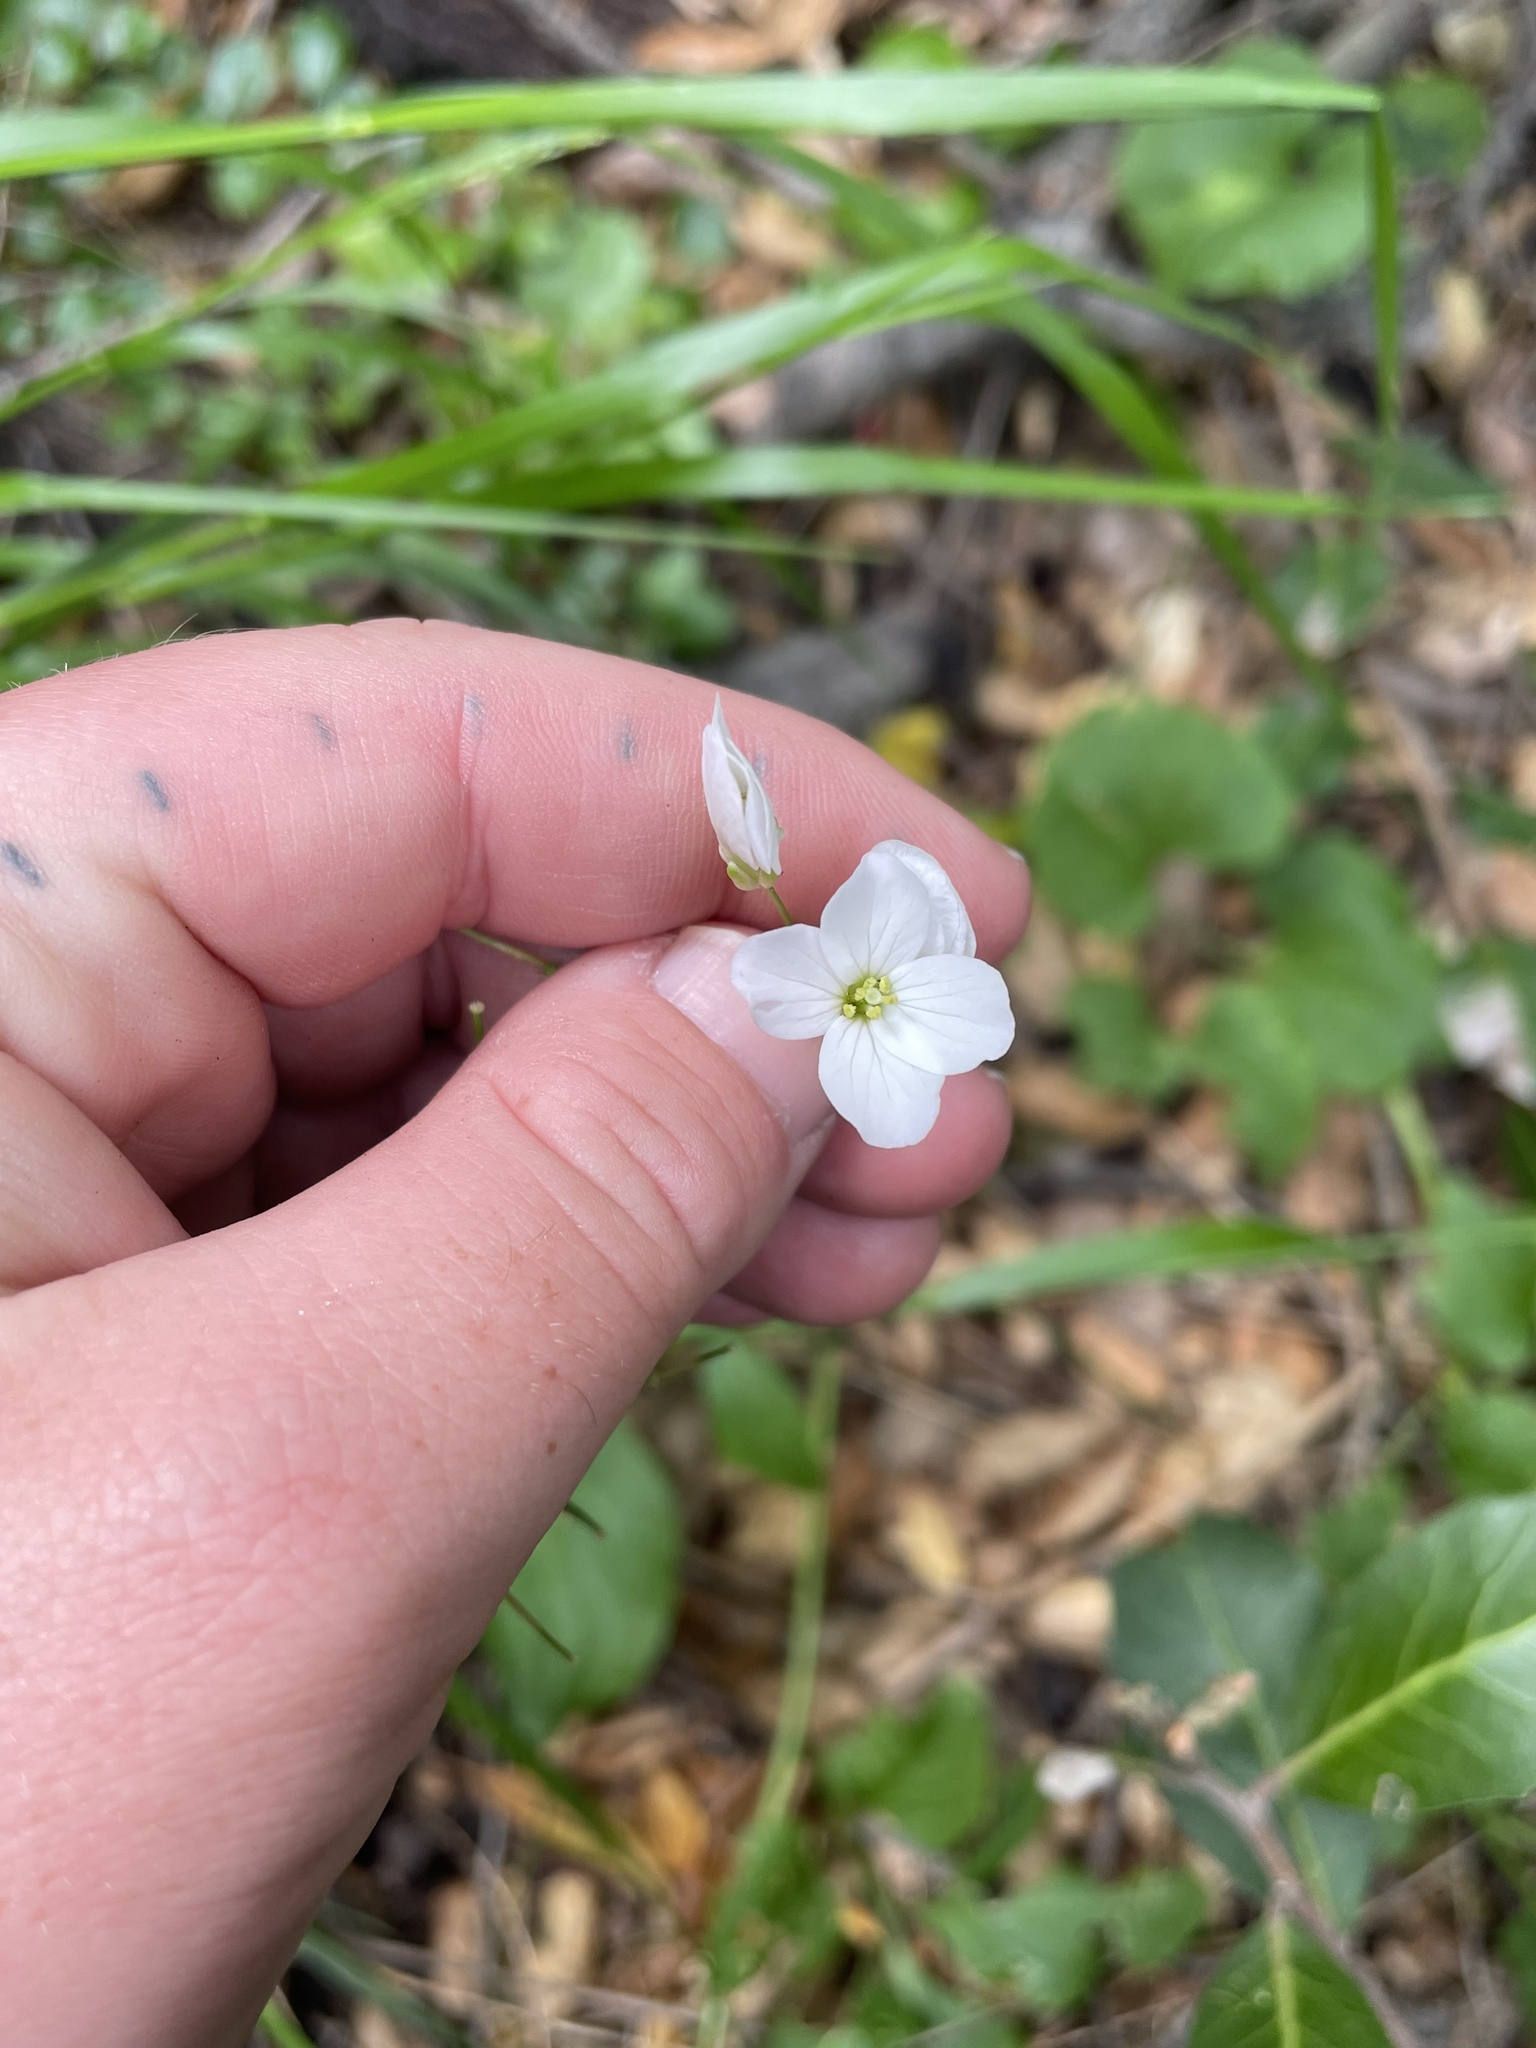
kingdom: Plantae
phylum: Tracheophyta
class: Magnoliopsida
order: Brassicales
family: Brassicaceae
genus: Cardamine
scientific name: Cardamine californica
